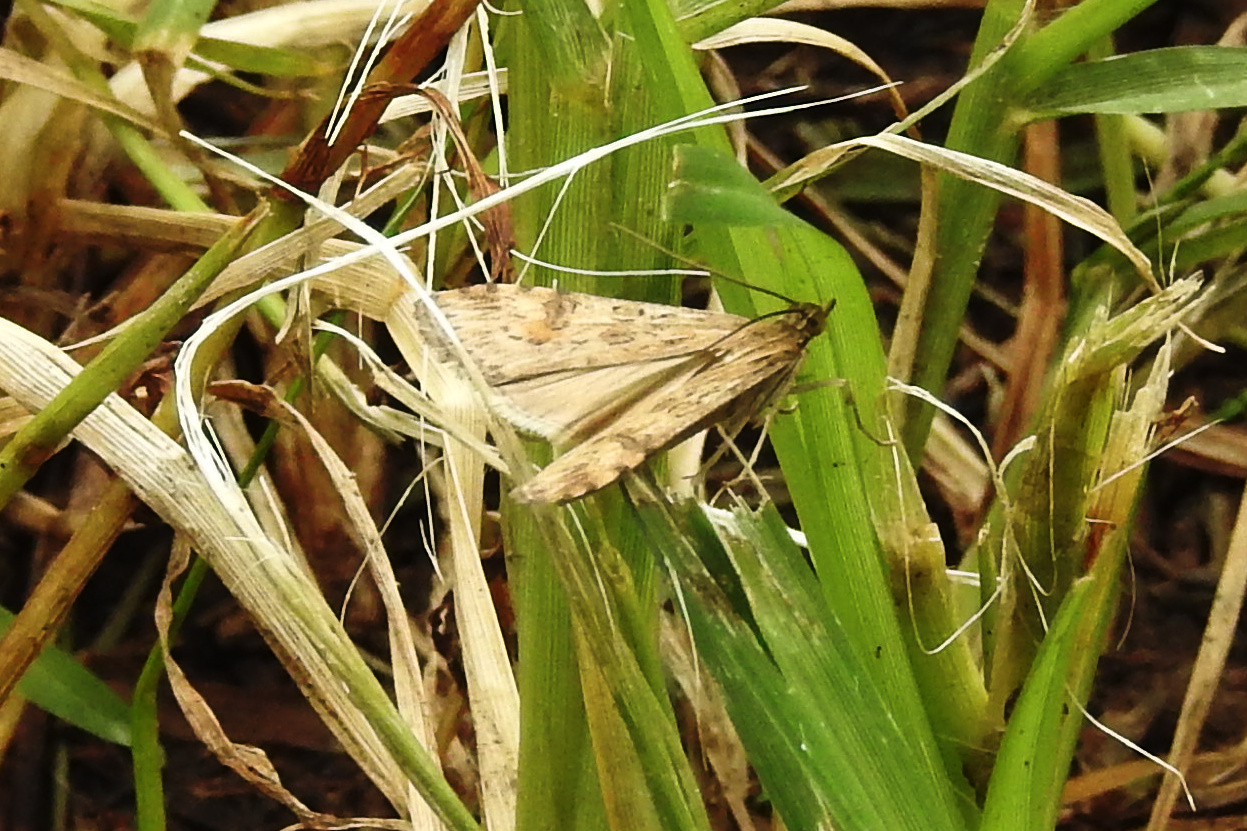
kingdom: Animalia
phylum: Arthropoda
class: Insecta
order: Lepidoptera
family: Crambidae
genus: Nomophila
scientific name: Nomophila nearctica
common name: American rush veneer
